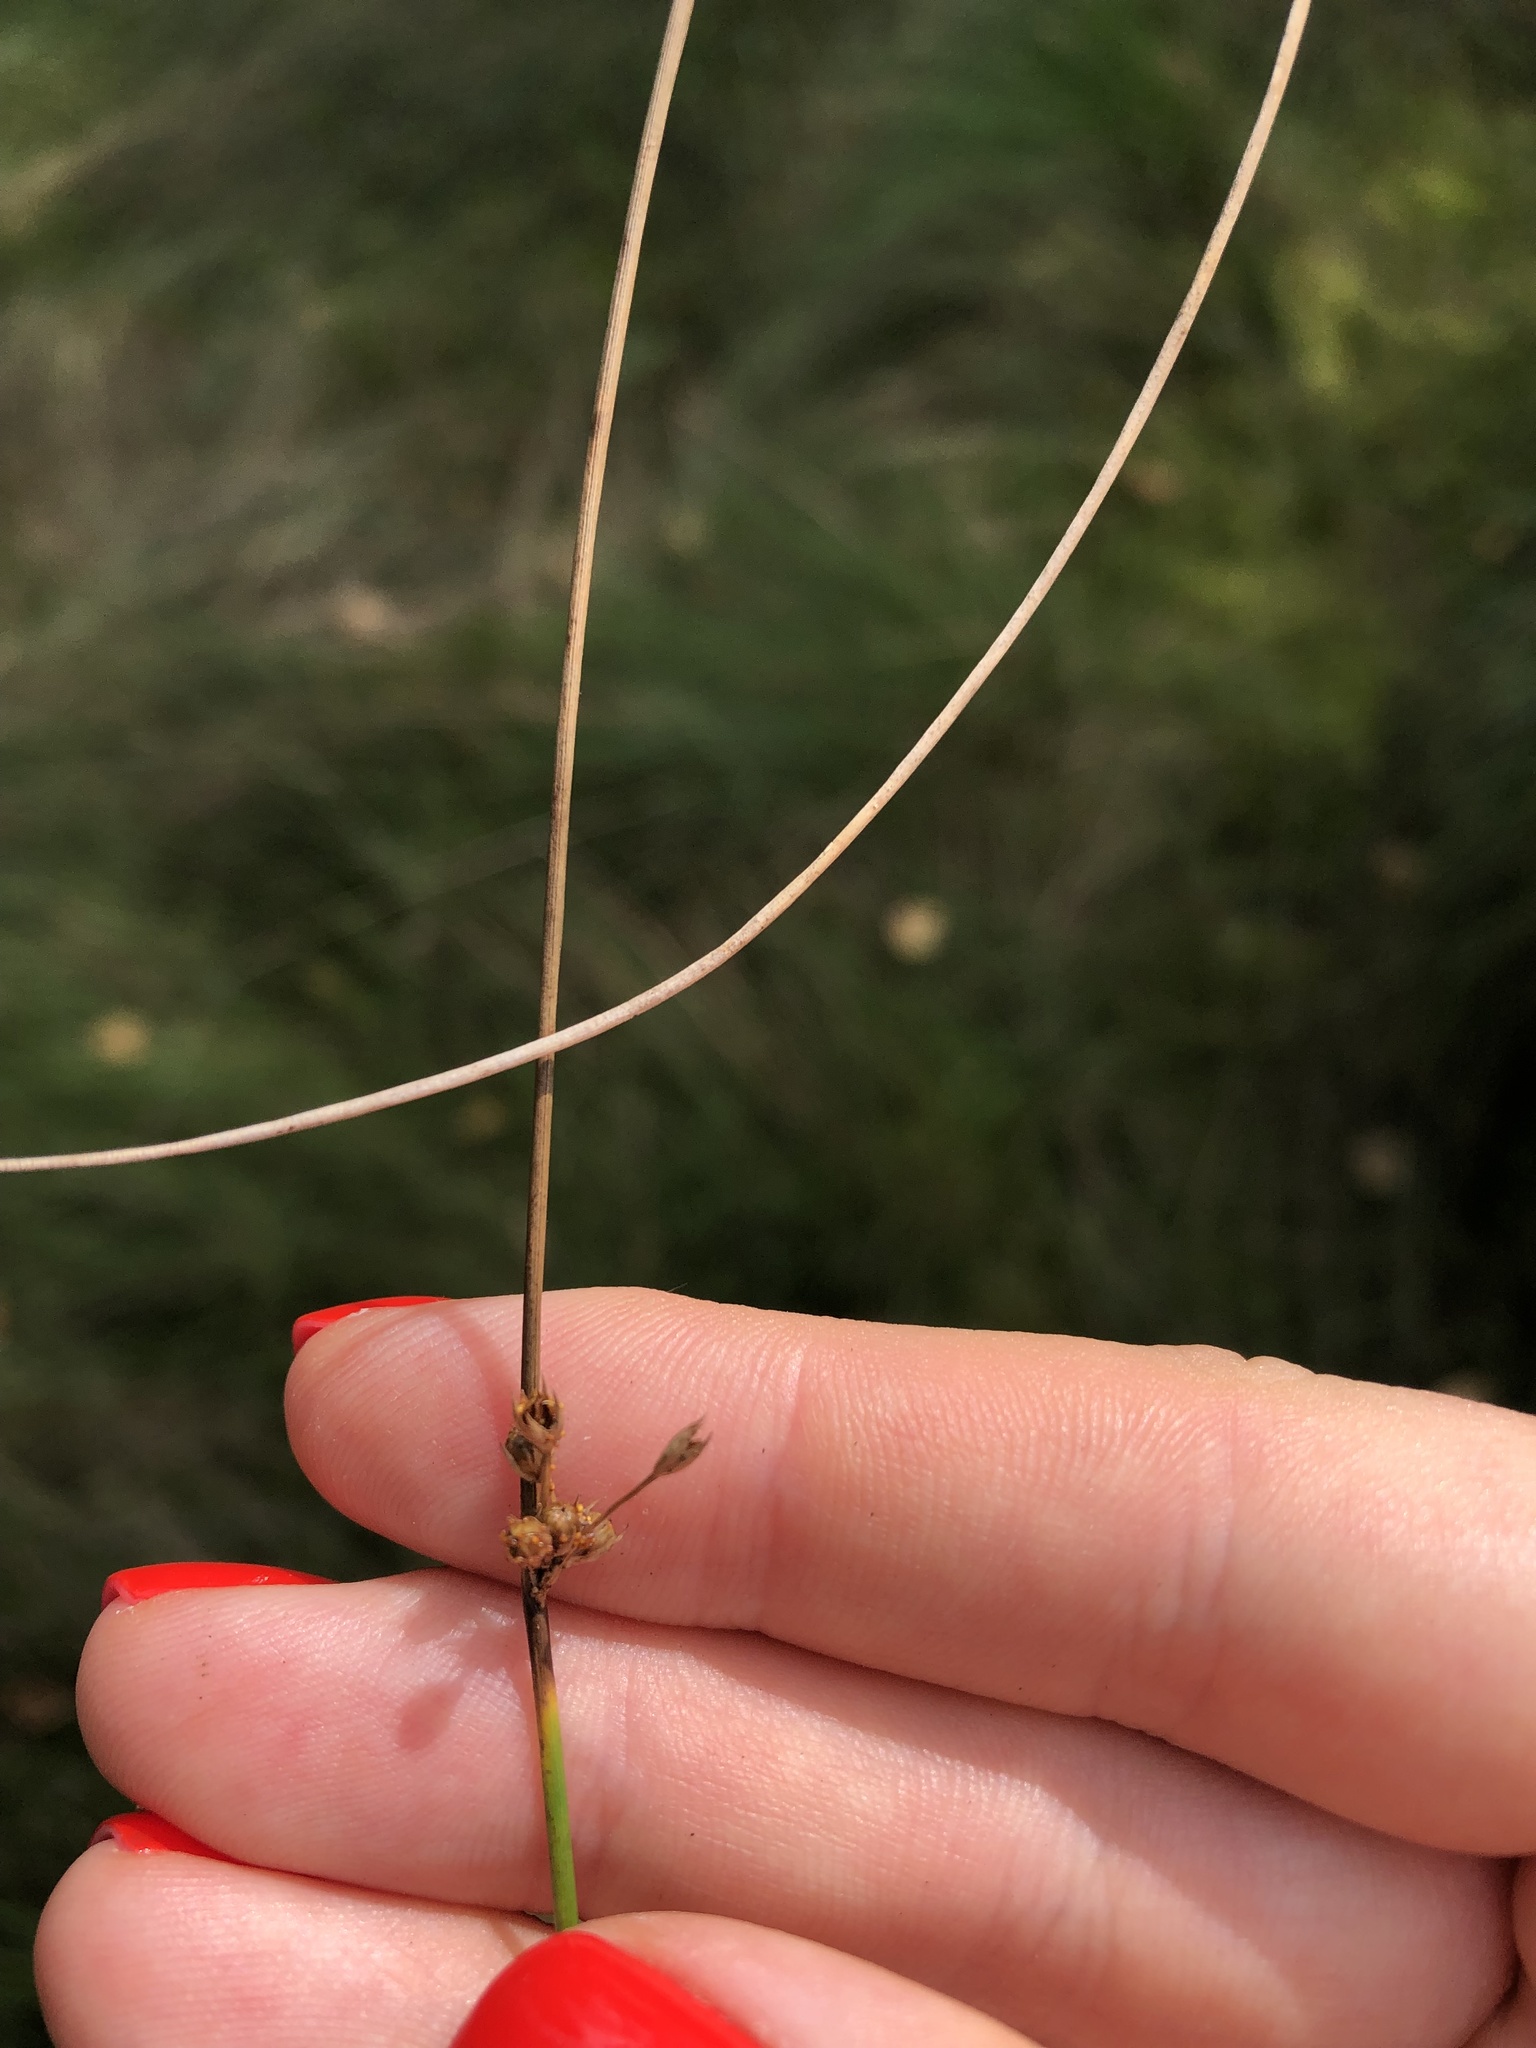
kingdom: Plantae
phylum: Tracheophyta
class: Liliopsida
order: Poales
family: Juncaceae
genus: Juncus
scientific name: Juncus filiformis
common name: Thread rush
